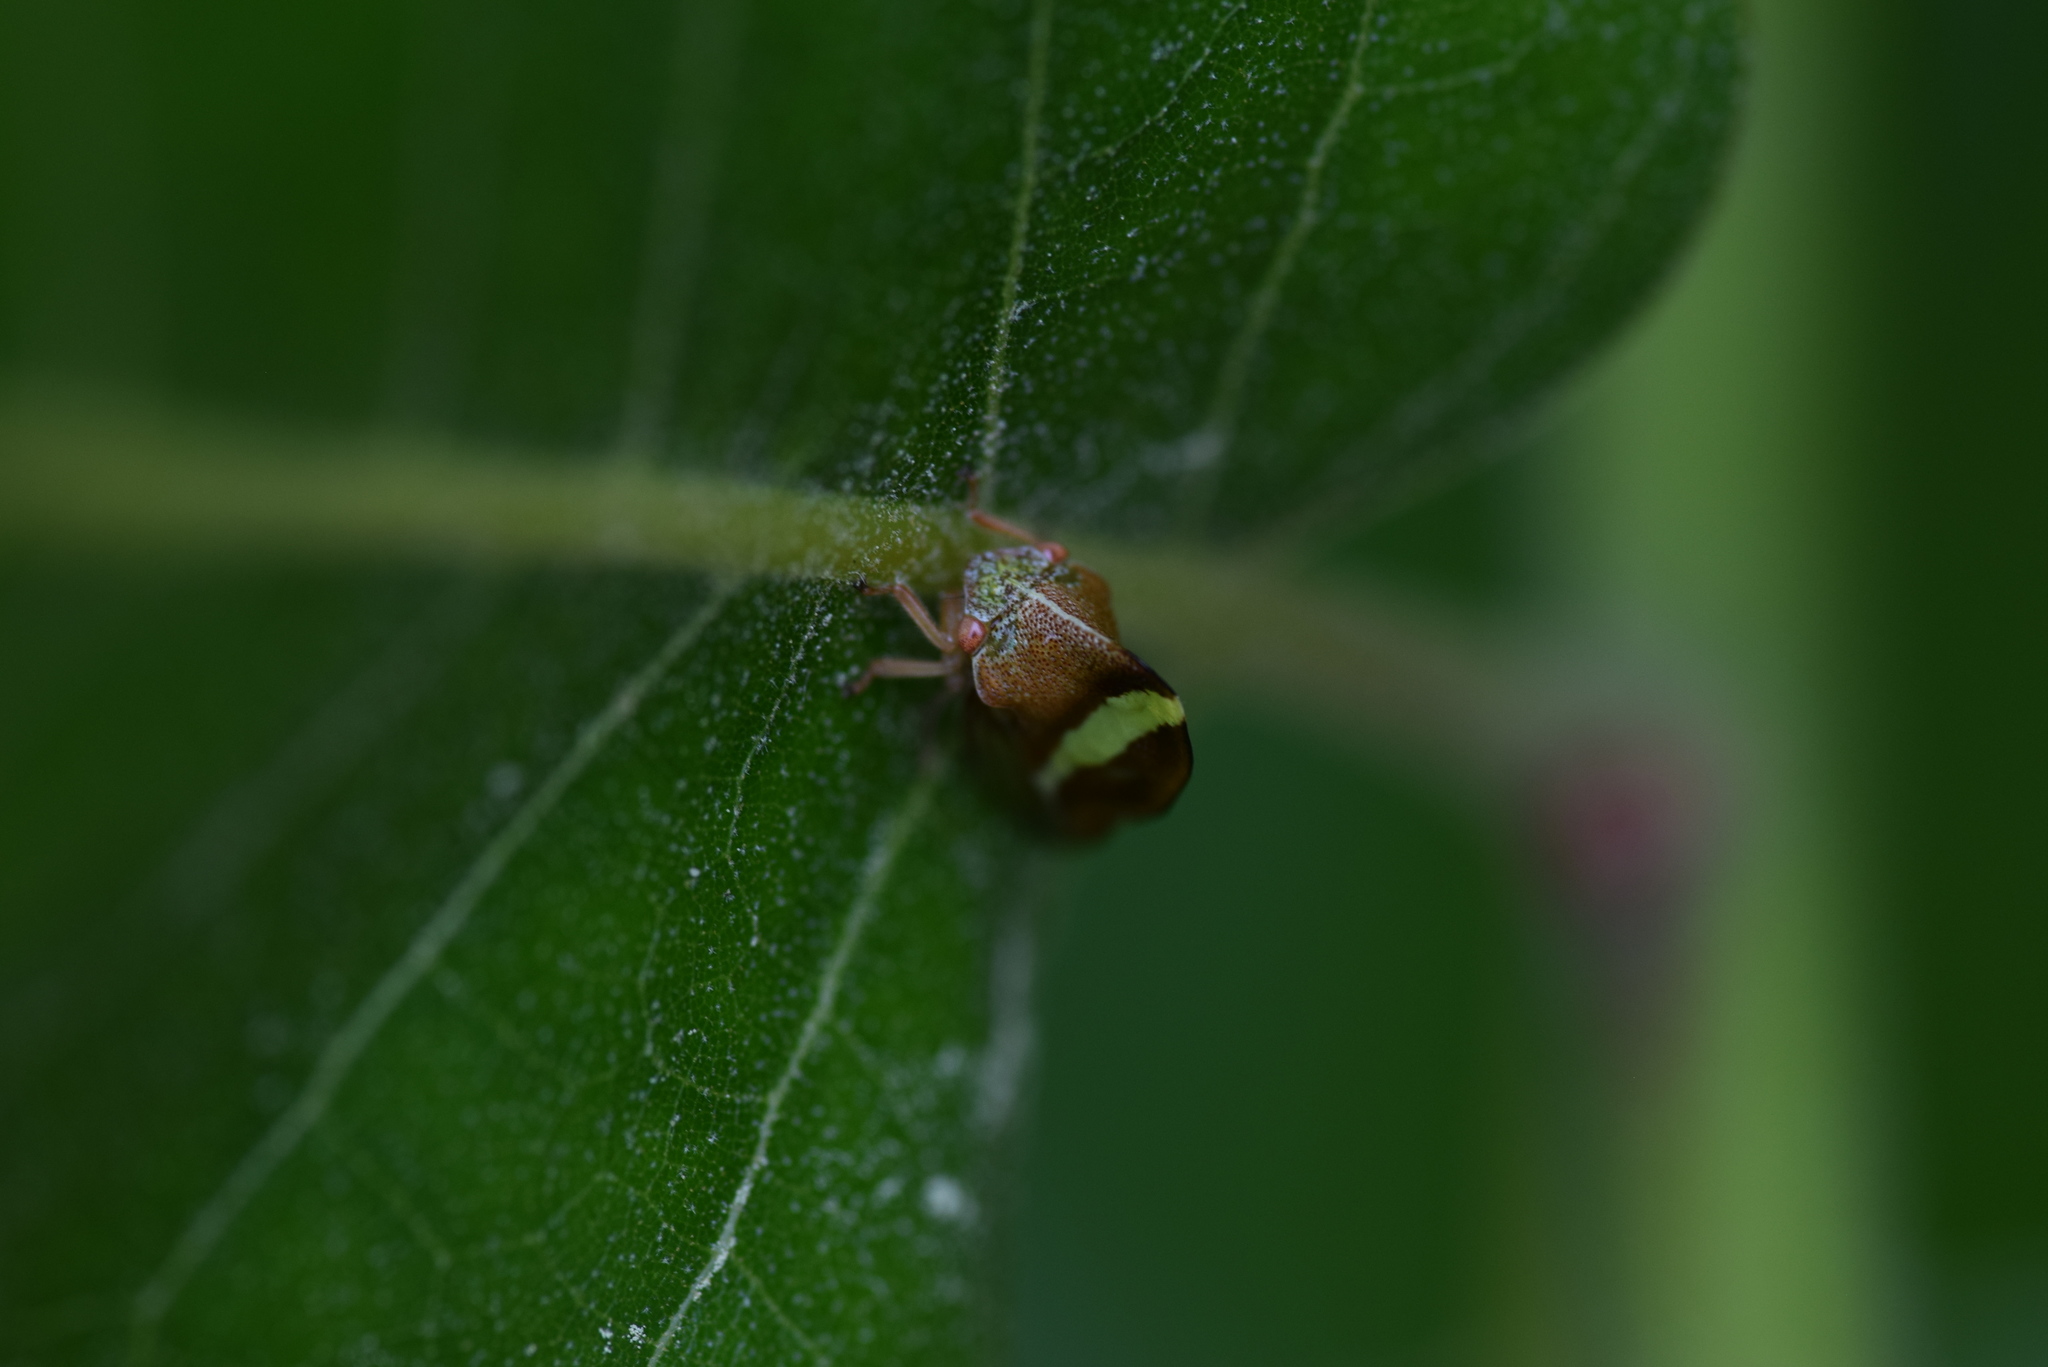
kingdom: Animalia
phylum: Arthropoda
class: Insecta
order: Hemiptera
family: Membracidae
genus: Smilia
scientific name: Smilia camelus
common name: Camel treehopper
